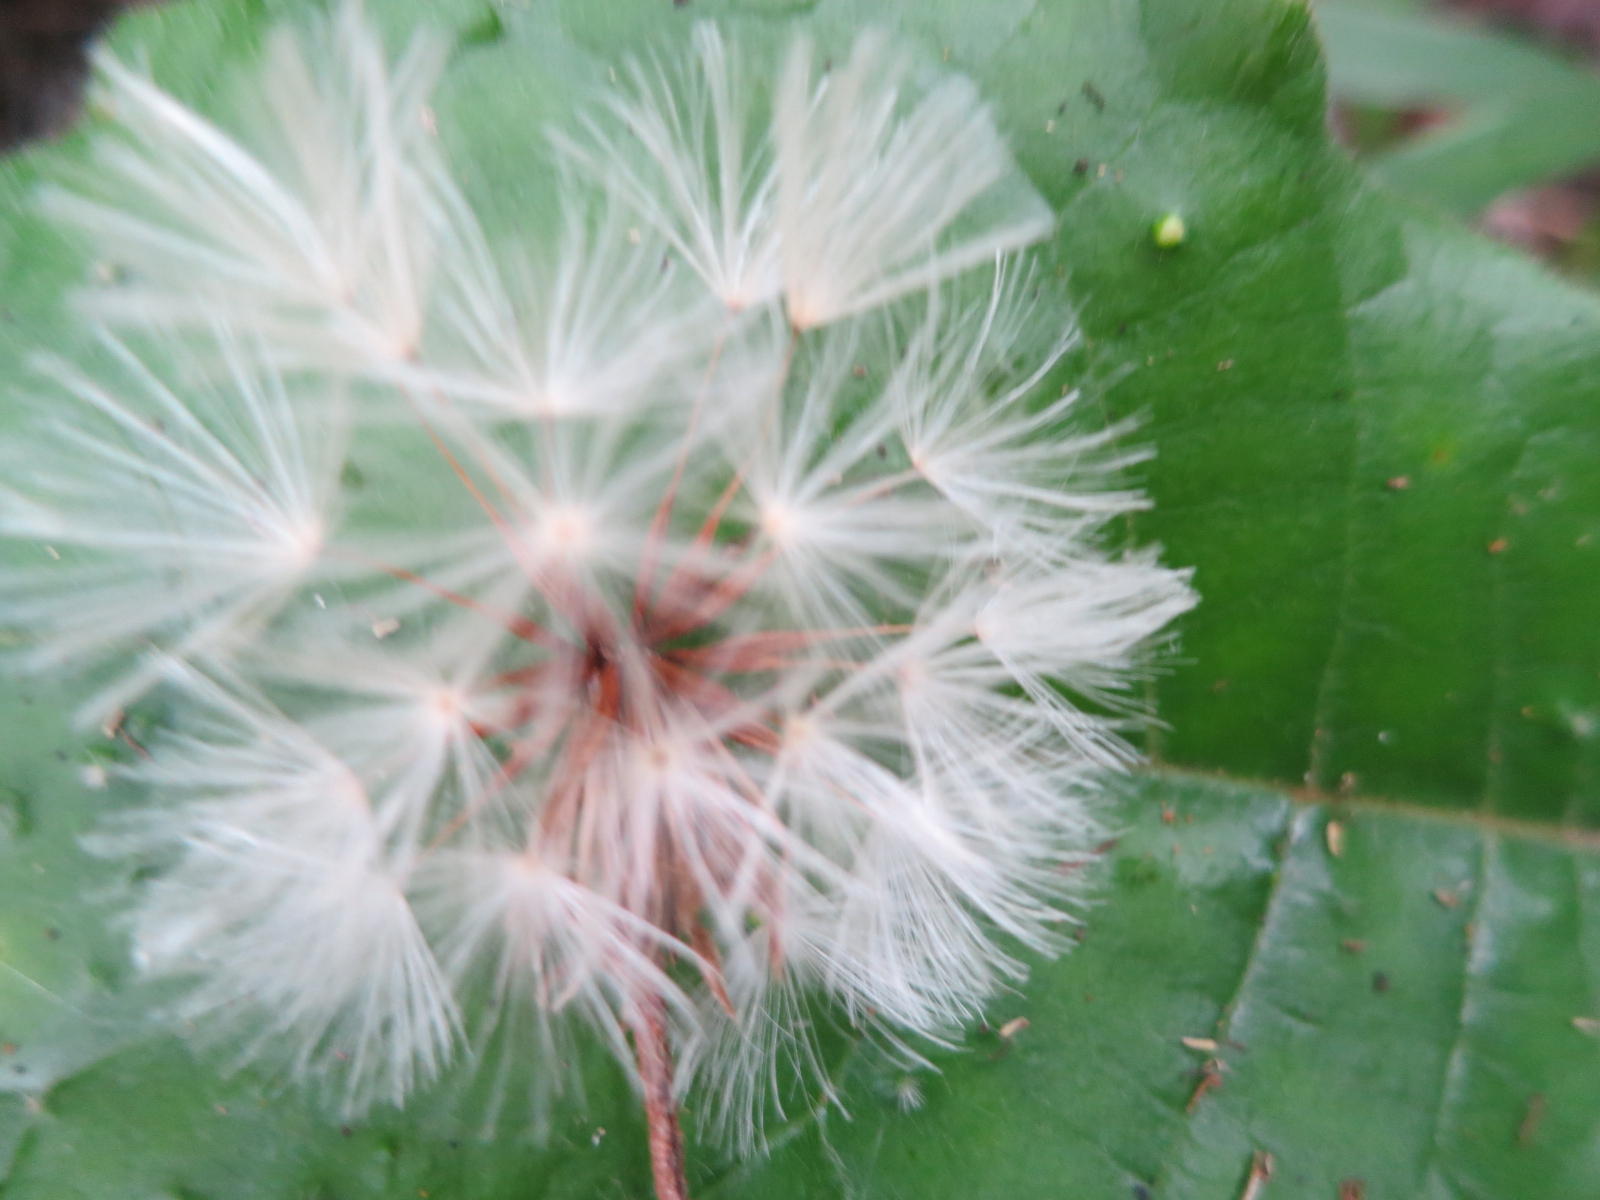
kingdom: Plantae
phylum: Tracheophyta
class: Magnoliopsida
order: Asterales
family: Asteraceae
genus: Piloselloides
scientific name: Piloselloides cordata
